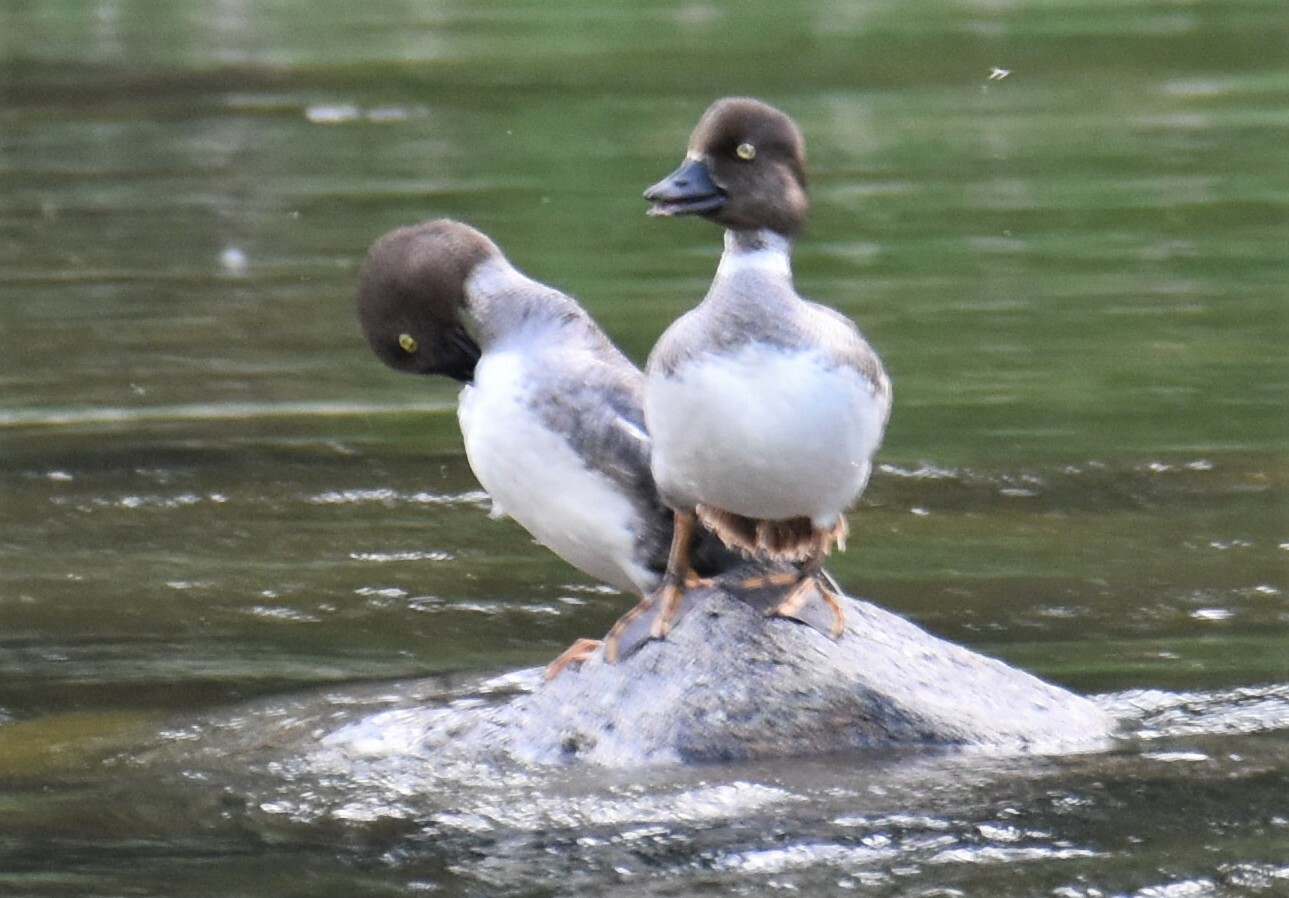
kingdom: Animalia
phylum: Chordata
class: Aves
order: Anseriformes
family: Anatidae
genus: Bucephala
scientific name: Bucephala clangula
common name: Common goldeneye
